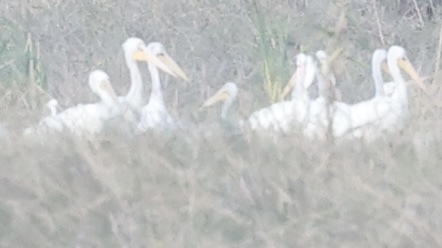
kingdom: Animalia
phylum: Chordata
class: Aves
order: Pelecaniformes
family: Pelecanidae
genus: Pelecanus
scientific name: Pelecanus erythrorhynchos
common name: American white pelican
